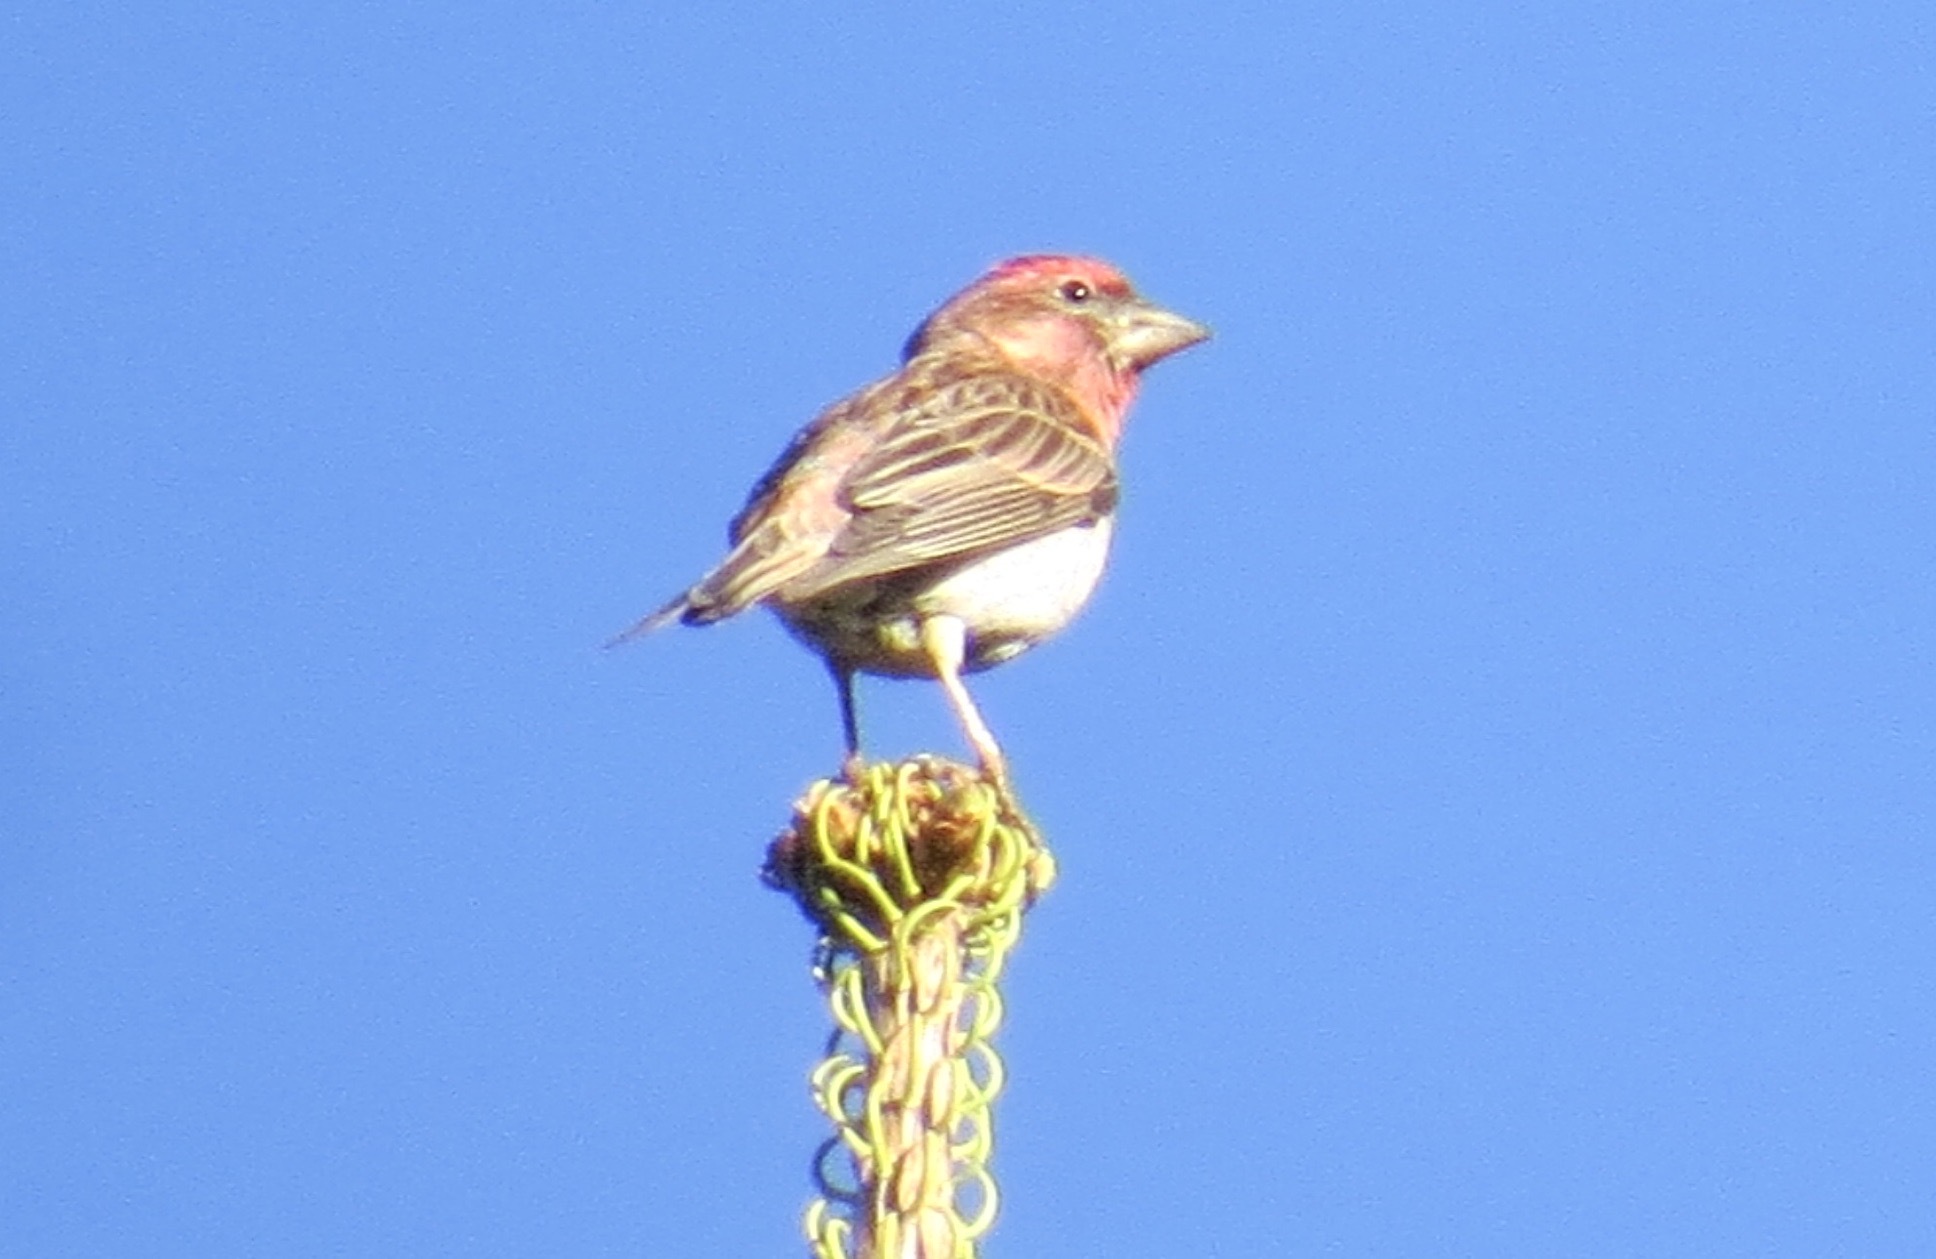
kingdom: Animalia
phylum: Chordata
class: Aves
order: Passeriformes
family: Fringillidae
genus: Haemorhous
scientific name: Haemorhous cassinii
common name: Cassin's finch
